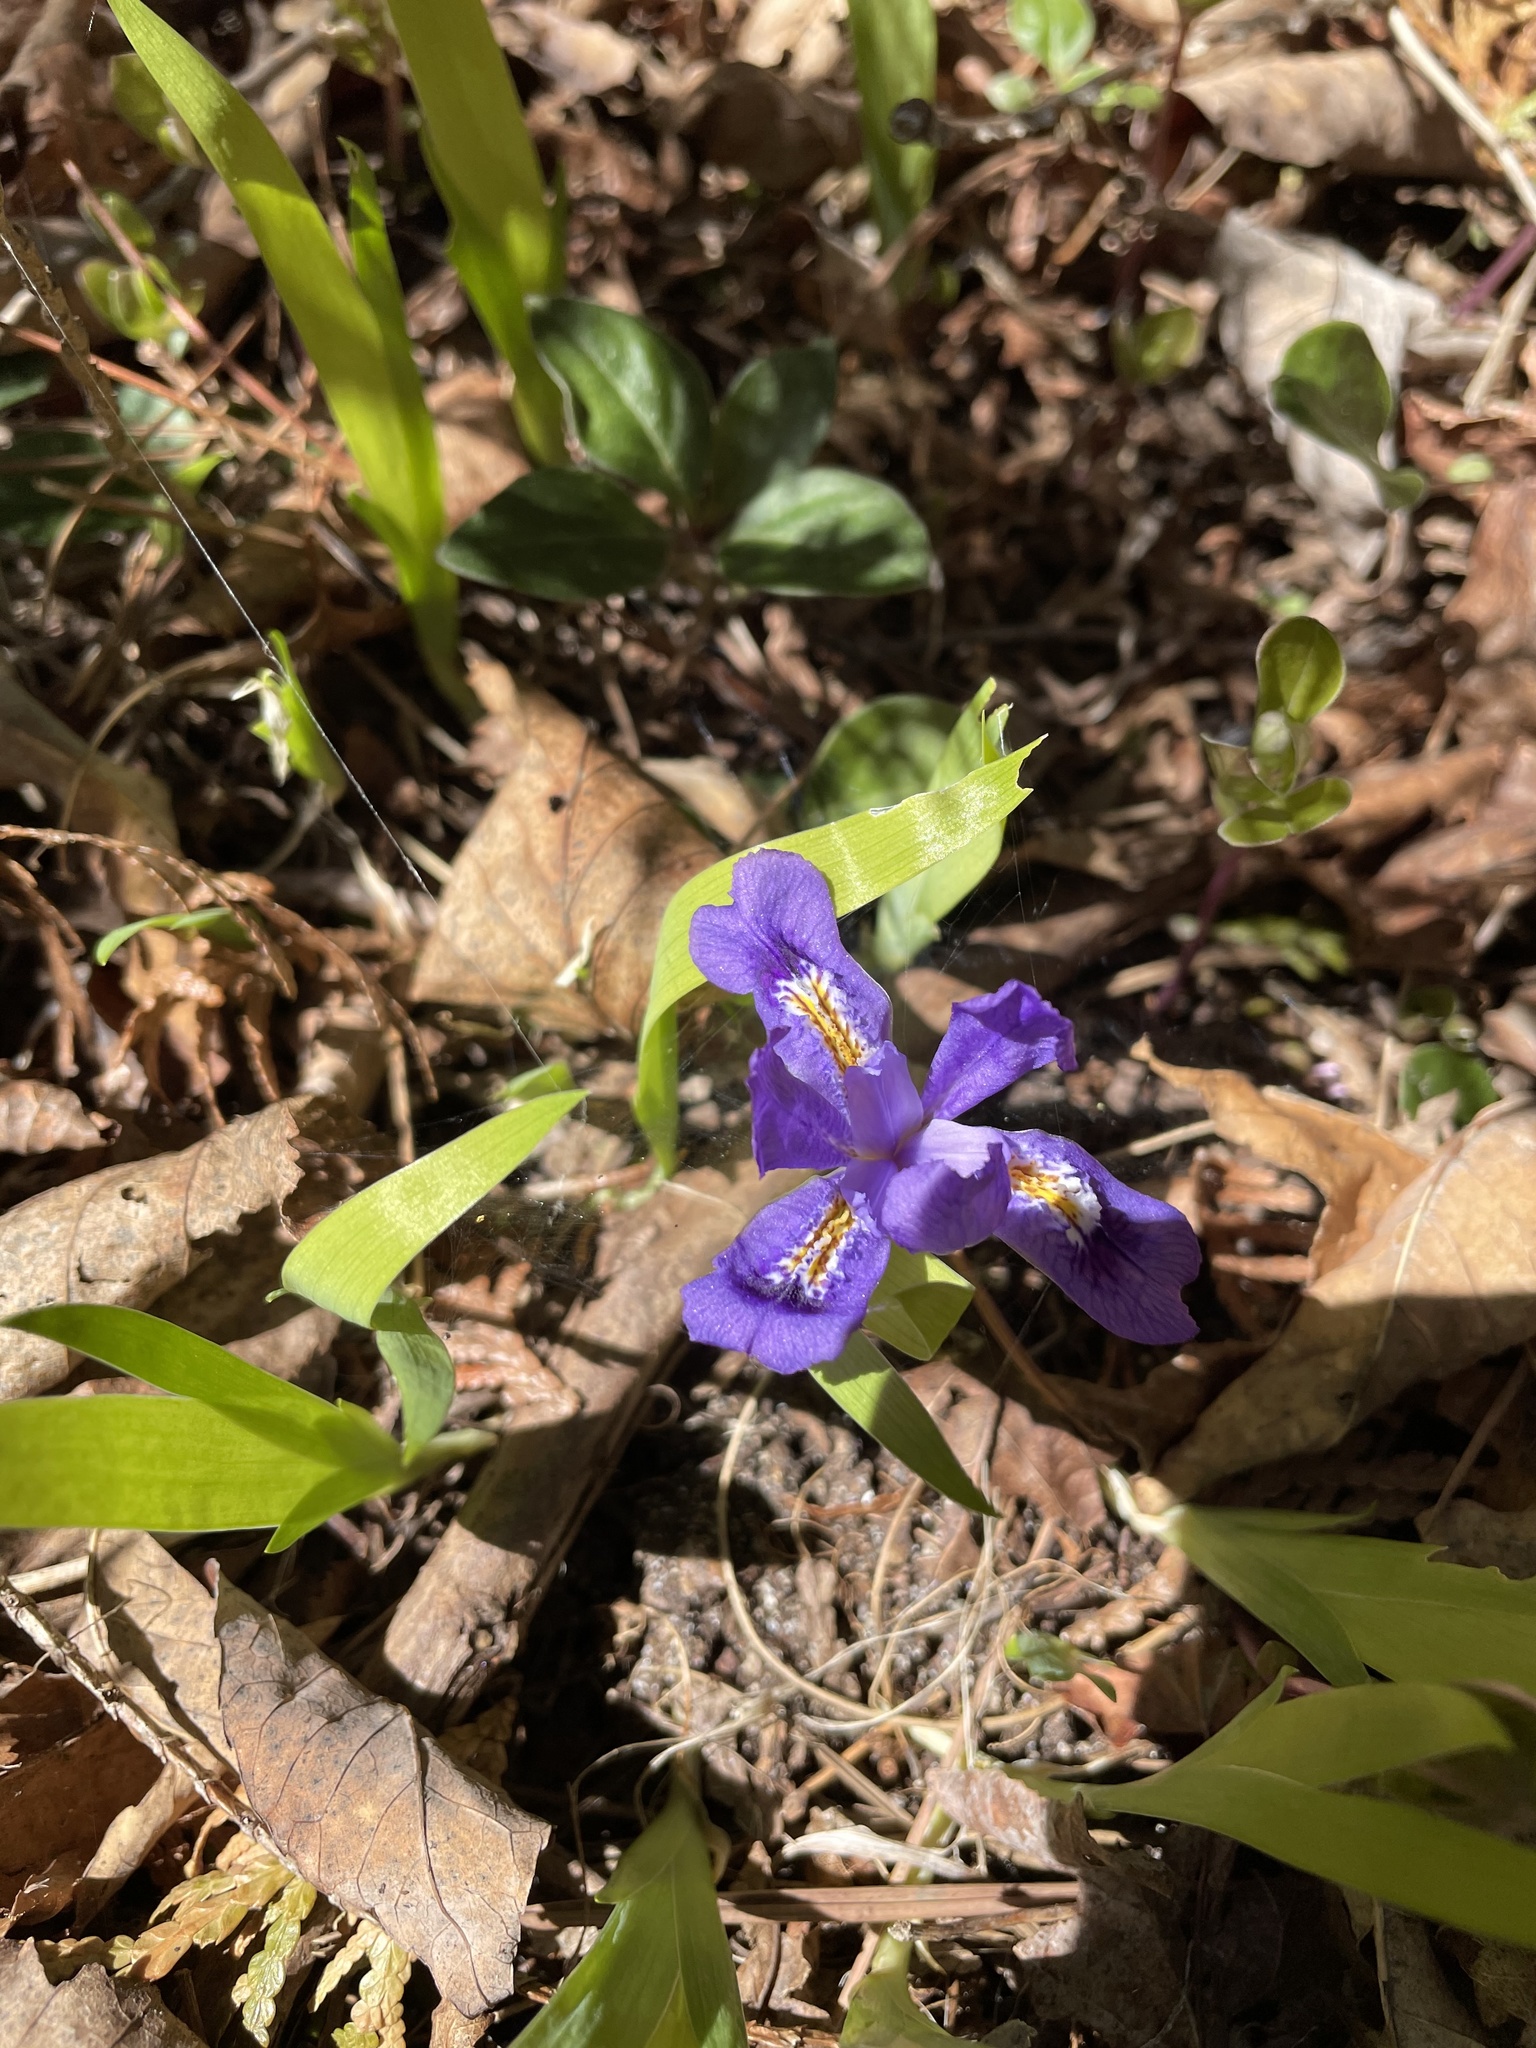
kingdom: Plantae
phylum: Tracheophyta
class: Liliopsida
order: Asparagales
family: Iridaceae
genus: Iris
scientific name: Iris lacustris
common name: Dwarf lake iris
